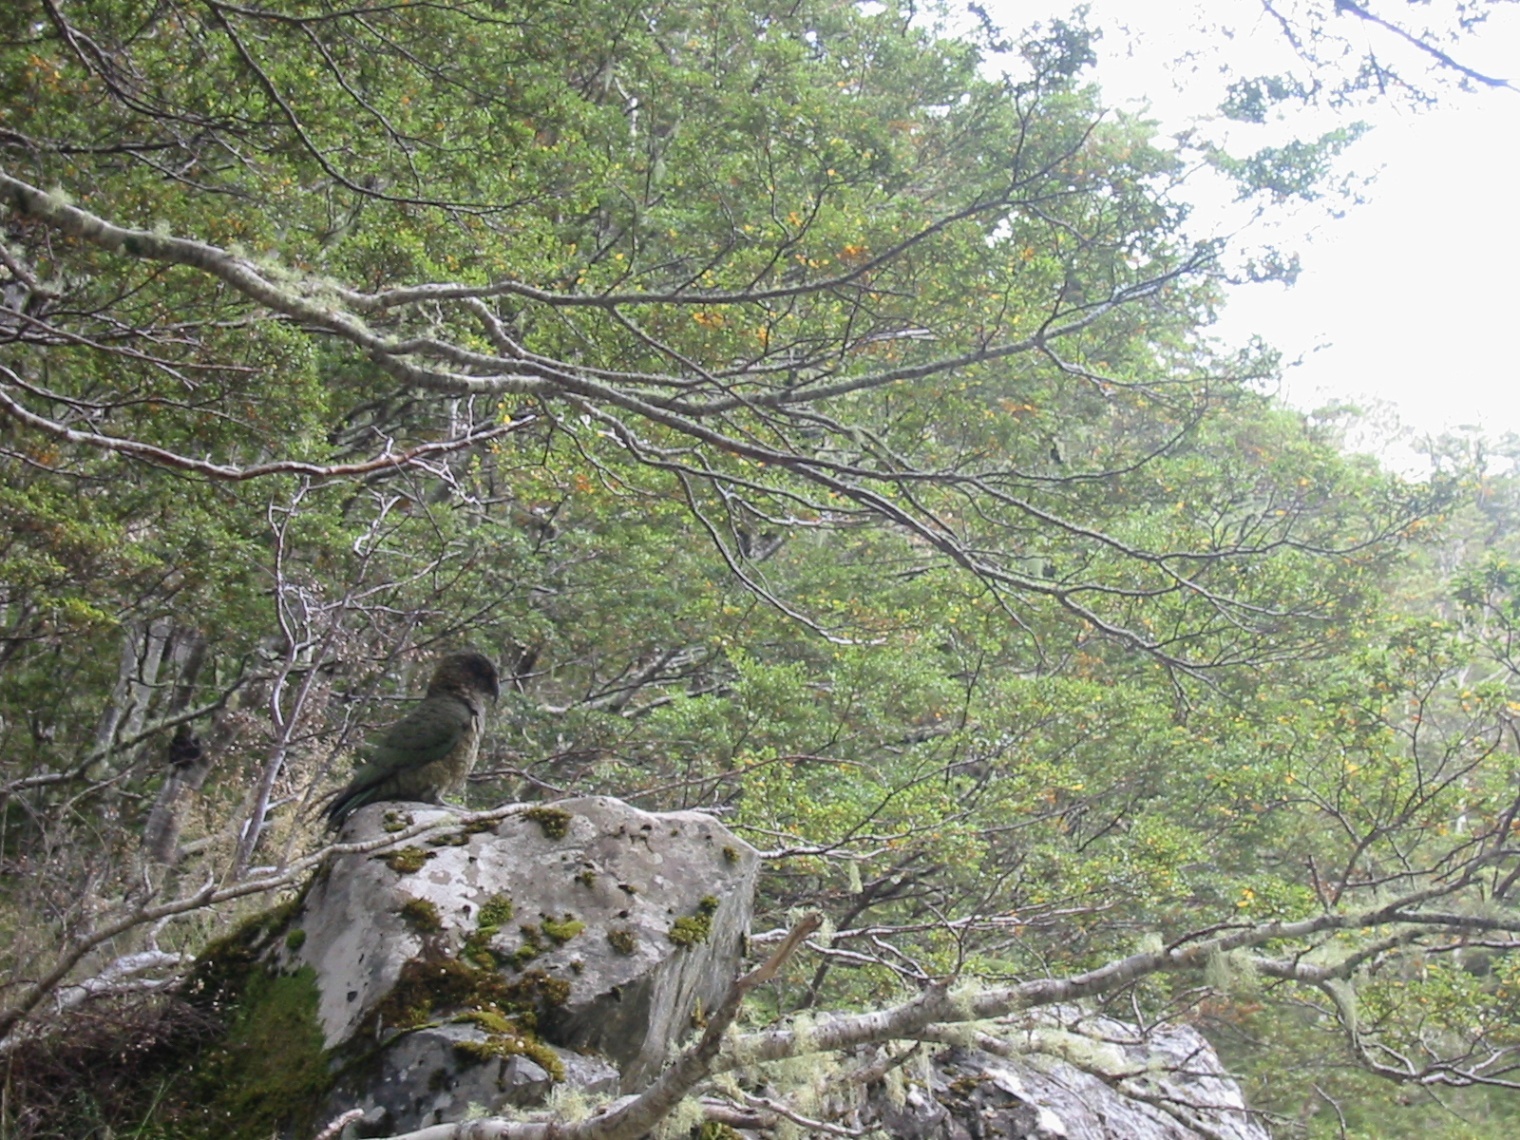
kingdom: Animalia
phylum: Chordata
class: Aves
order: Psittaciformes
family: Psittacidae
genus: Nestor
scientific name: Nestor notabilis
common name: Kea
